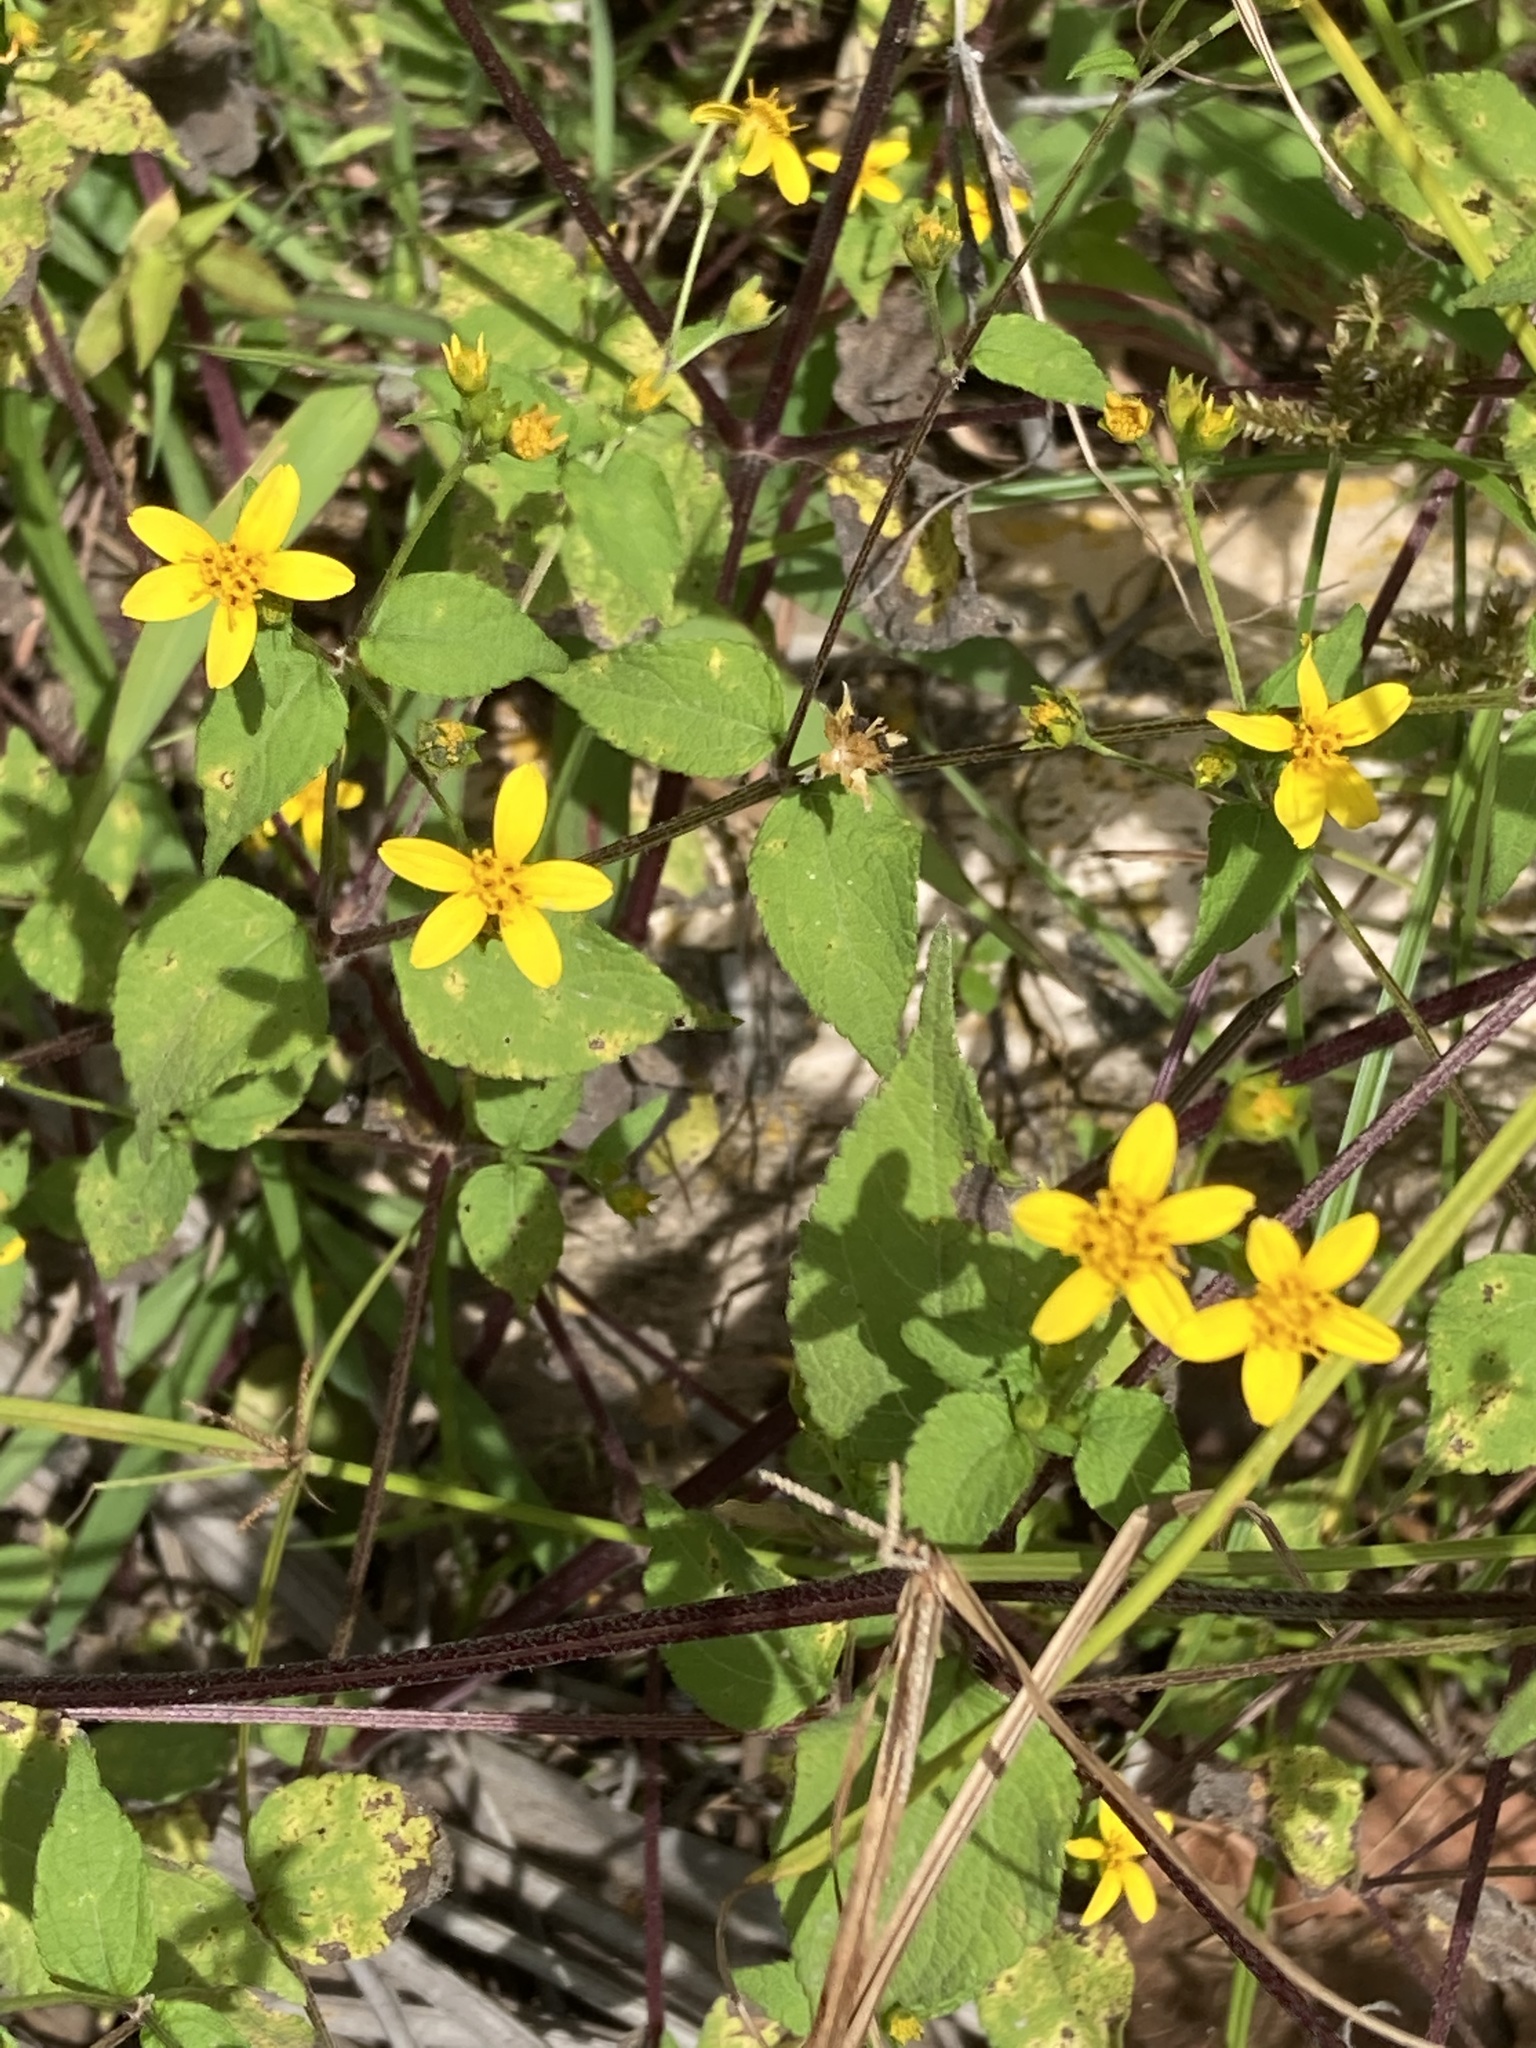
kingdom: Plantae
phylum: Tracheophyta
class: Magnoliopsida
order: Asterales
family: Asteraceae
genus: Baltimora
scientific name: Baltimora recta
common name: Beautyhead
